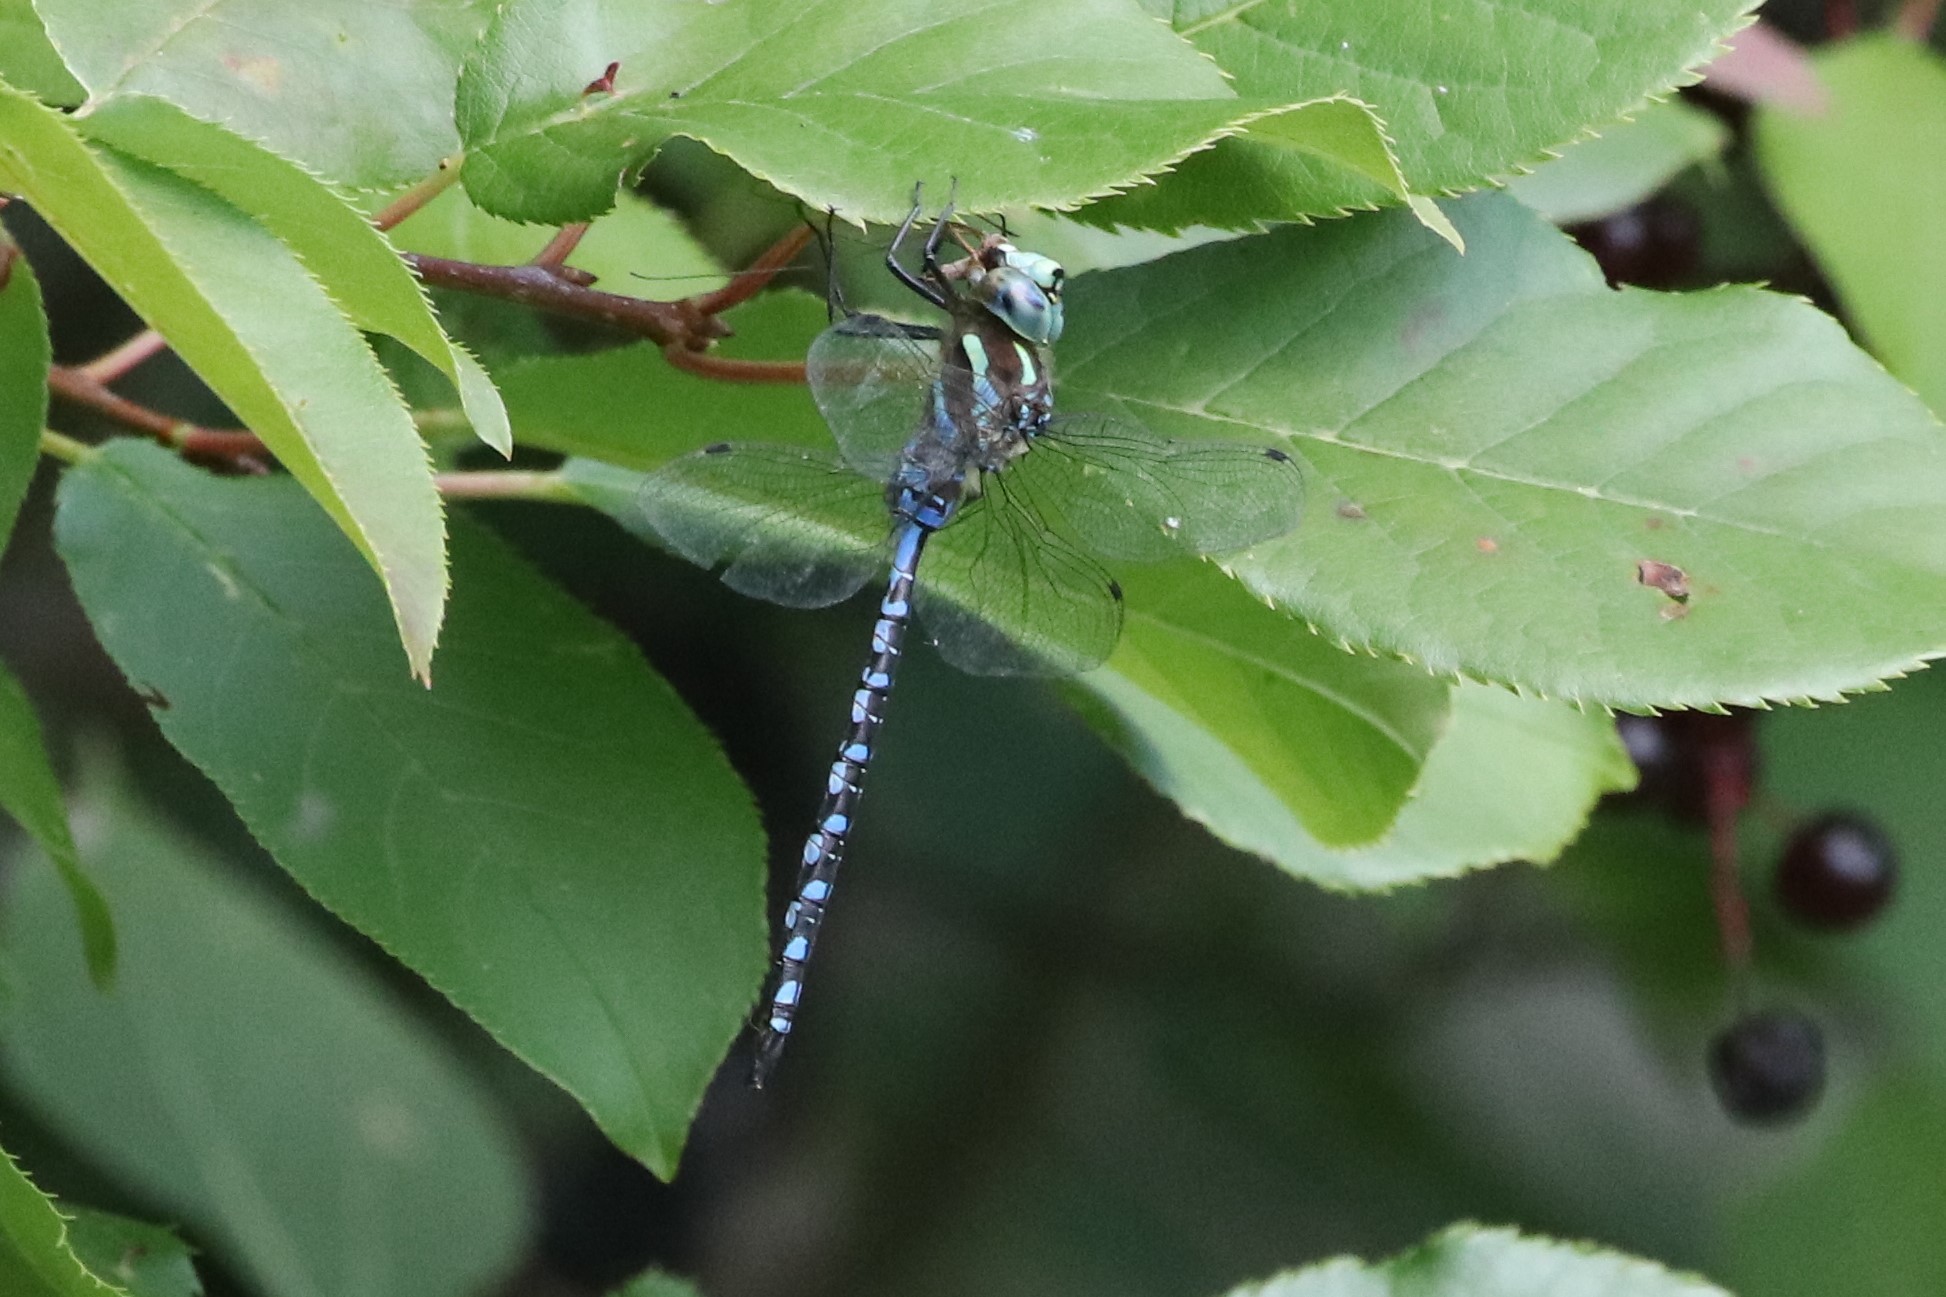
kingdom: Animalia
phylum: Arthropoda
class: Insecta
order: Odonata
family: Aeshnidae
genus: Aeshna
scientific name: Aeshna constricta
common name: Lance-tipped darner
